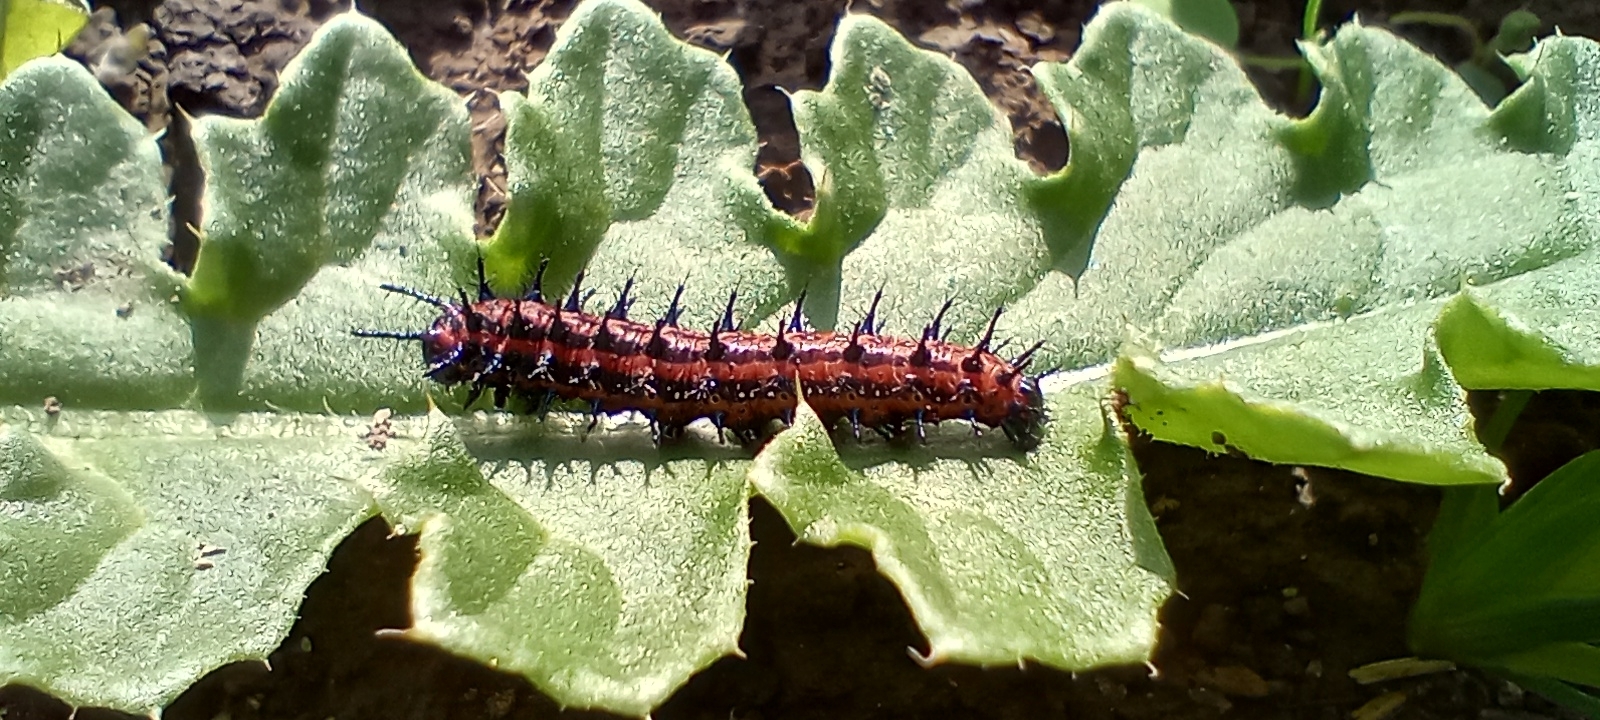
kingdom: Animalia
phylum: Arthropoda
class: Insecta
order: Lepidoptera
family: Nymphalidae
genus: Euptoieta
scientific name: Euptoieta hortensia
